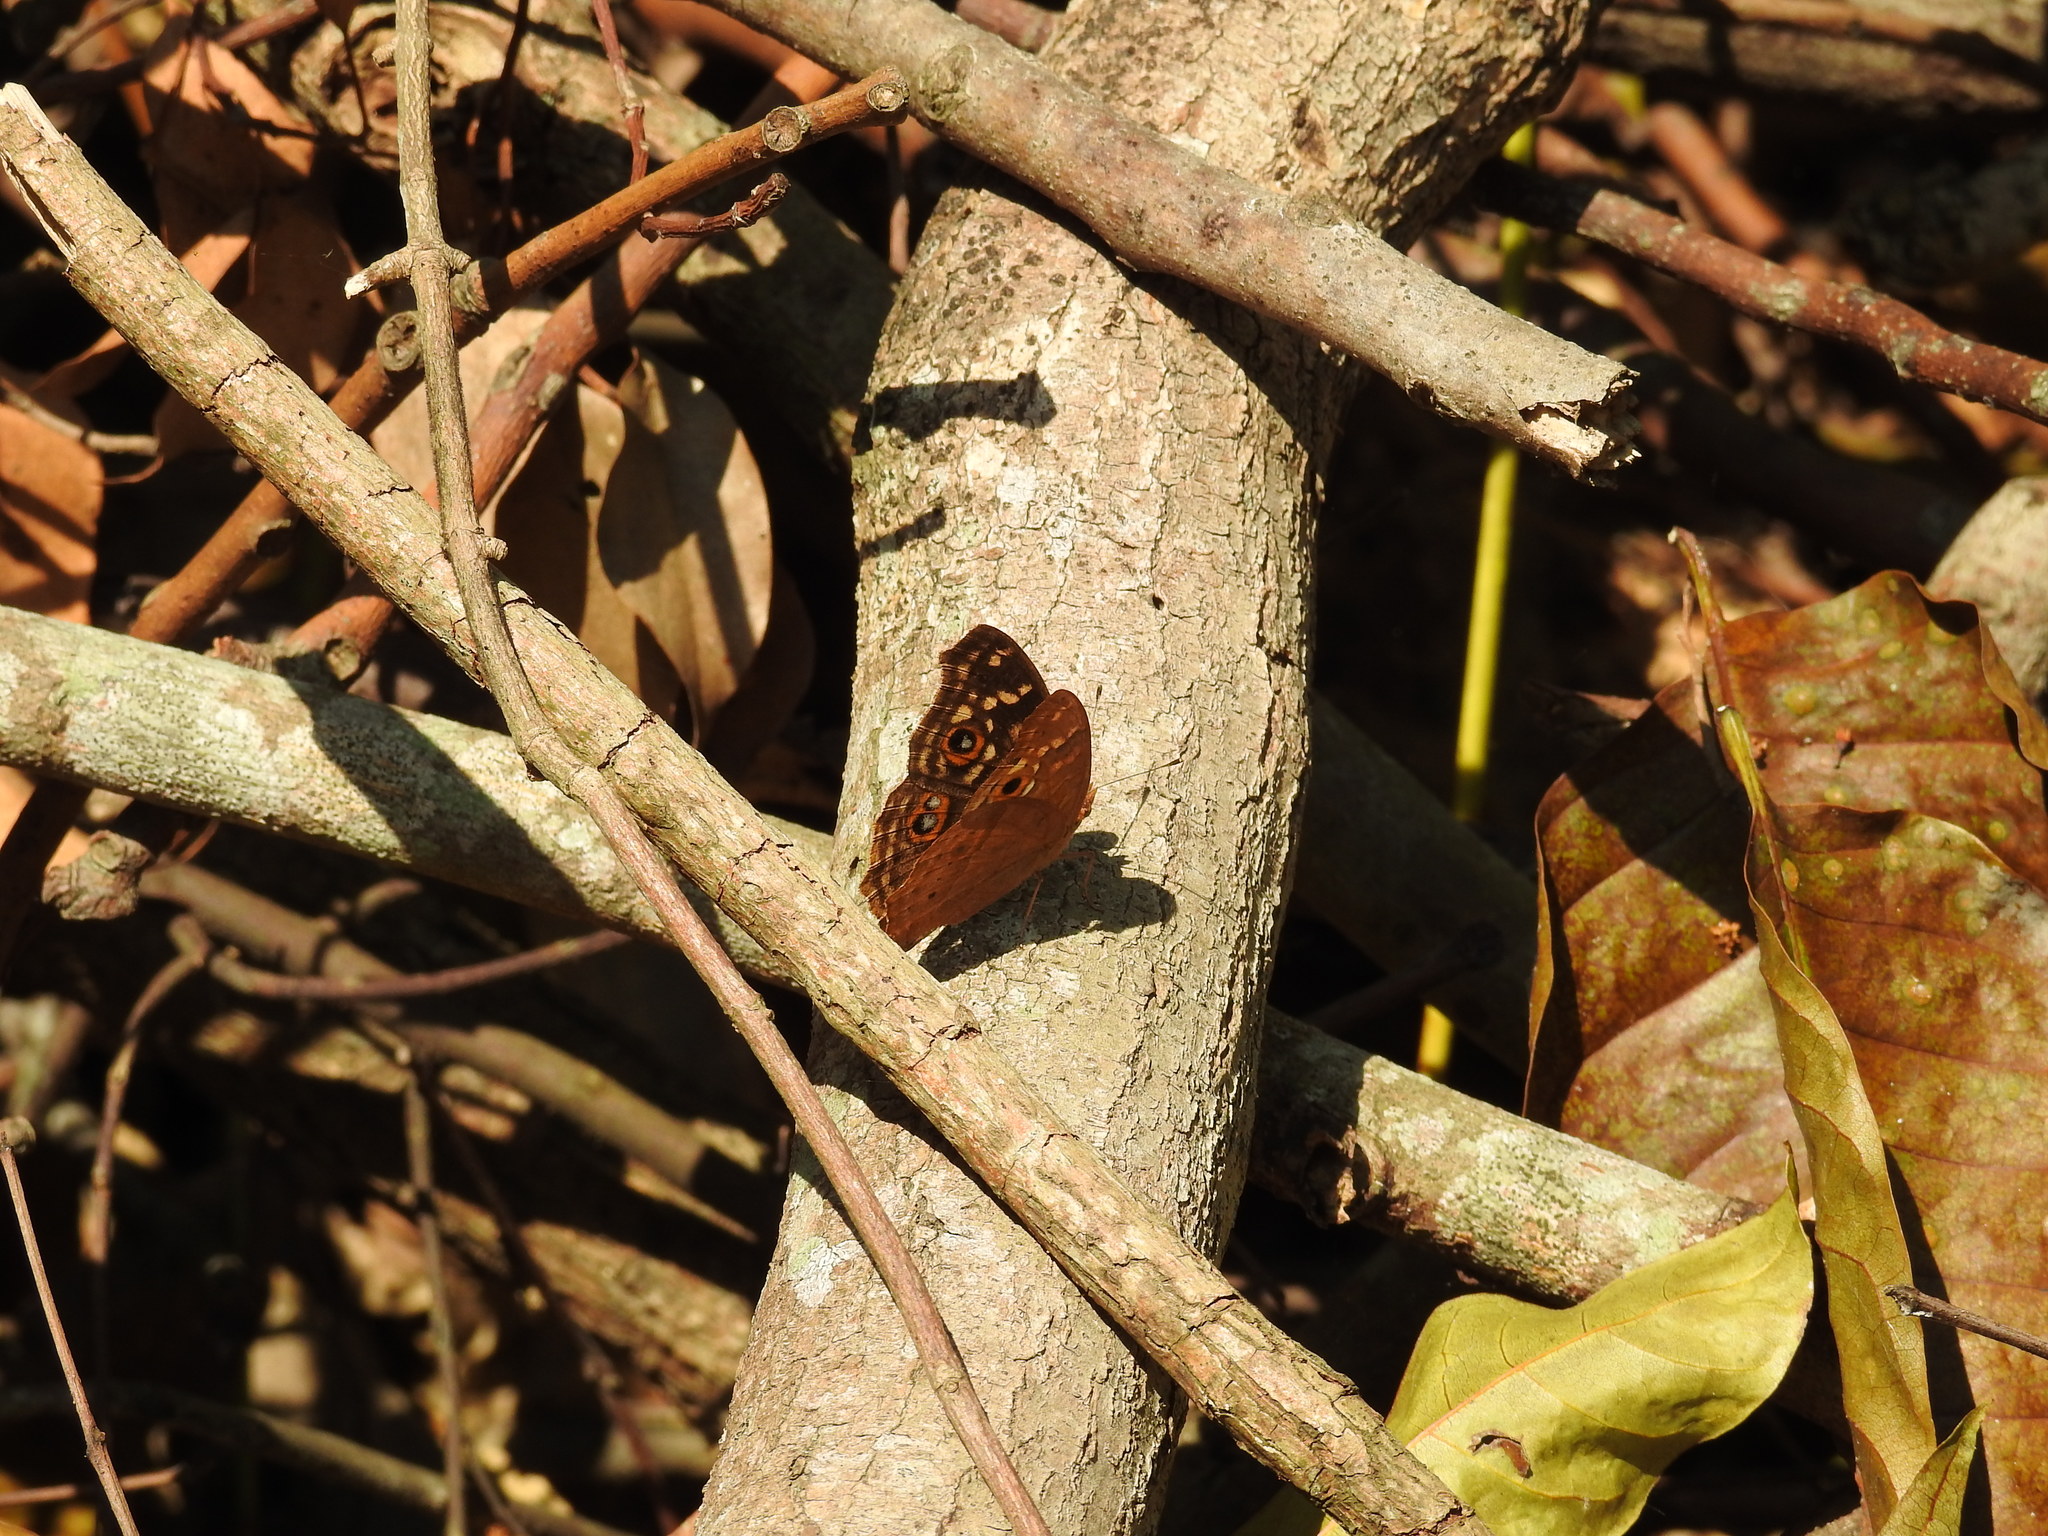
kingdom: Animalia
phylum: Arthropoda
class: Insecta
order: Lepidoptera
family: Nymphalidae
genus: Junonia
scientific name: Junonia lemonias
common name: Lemon pansy
